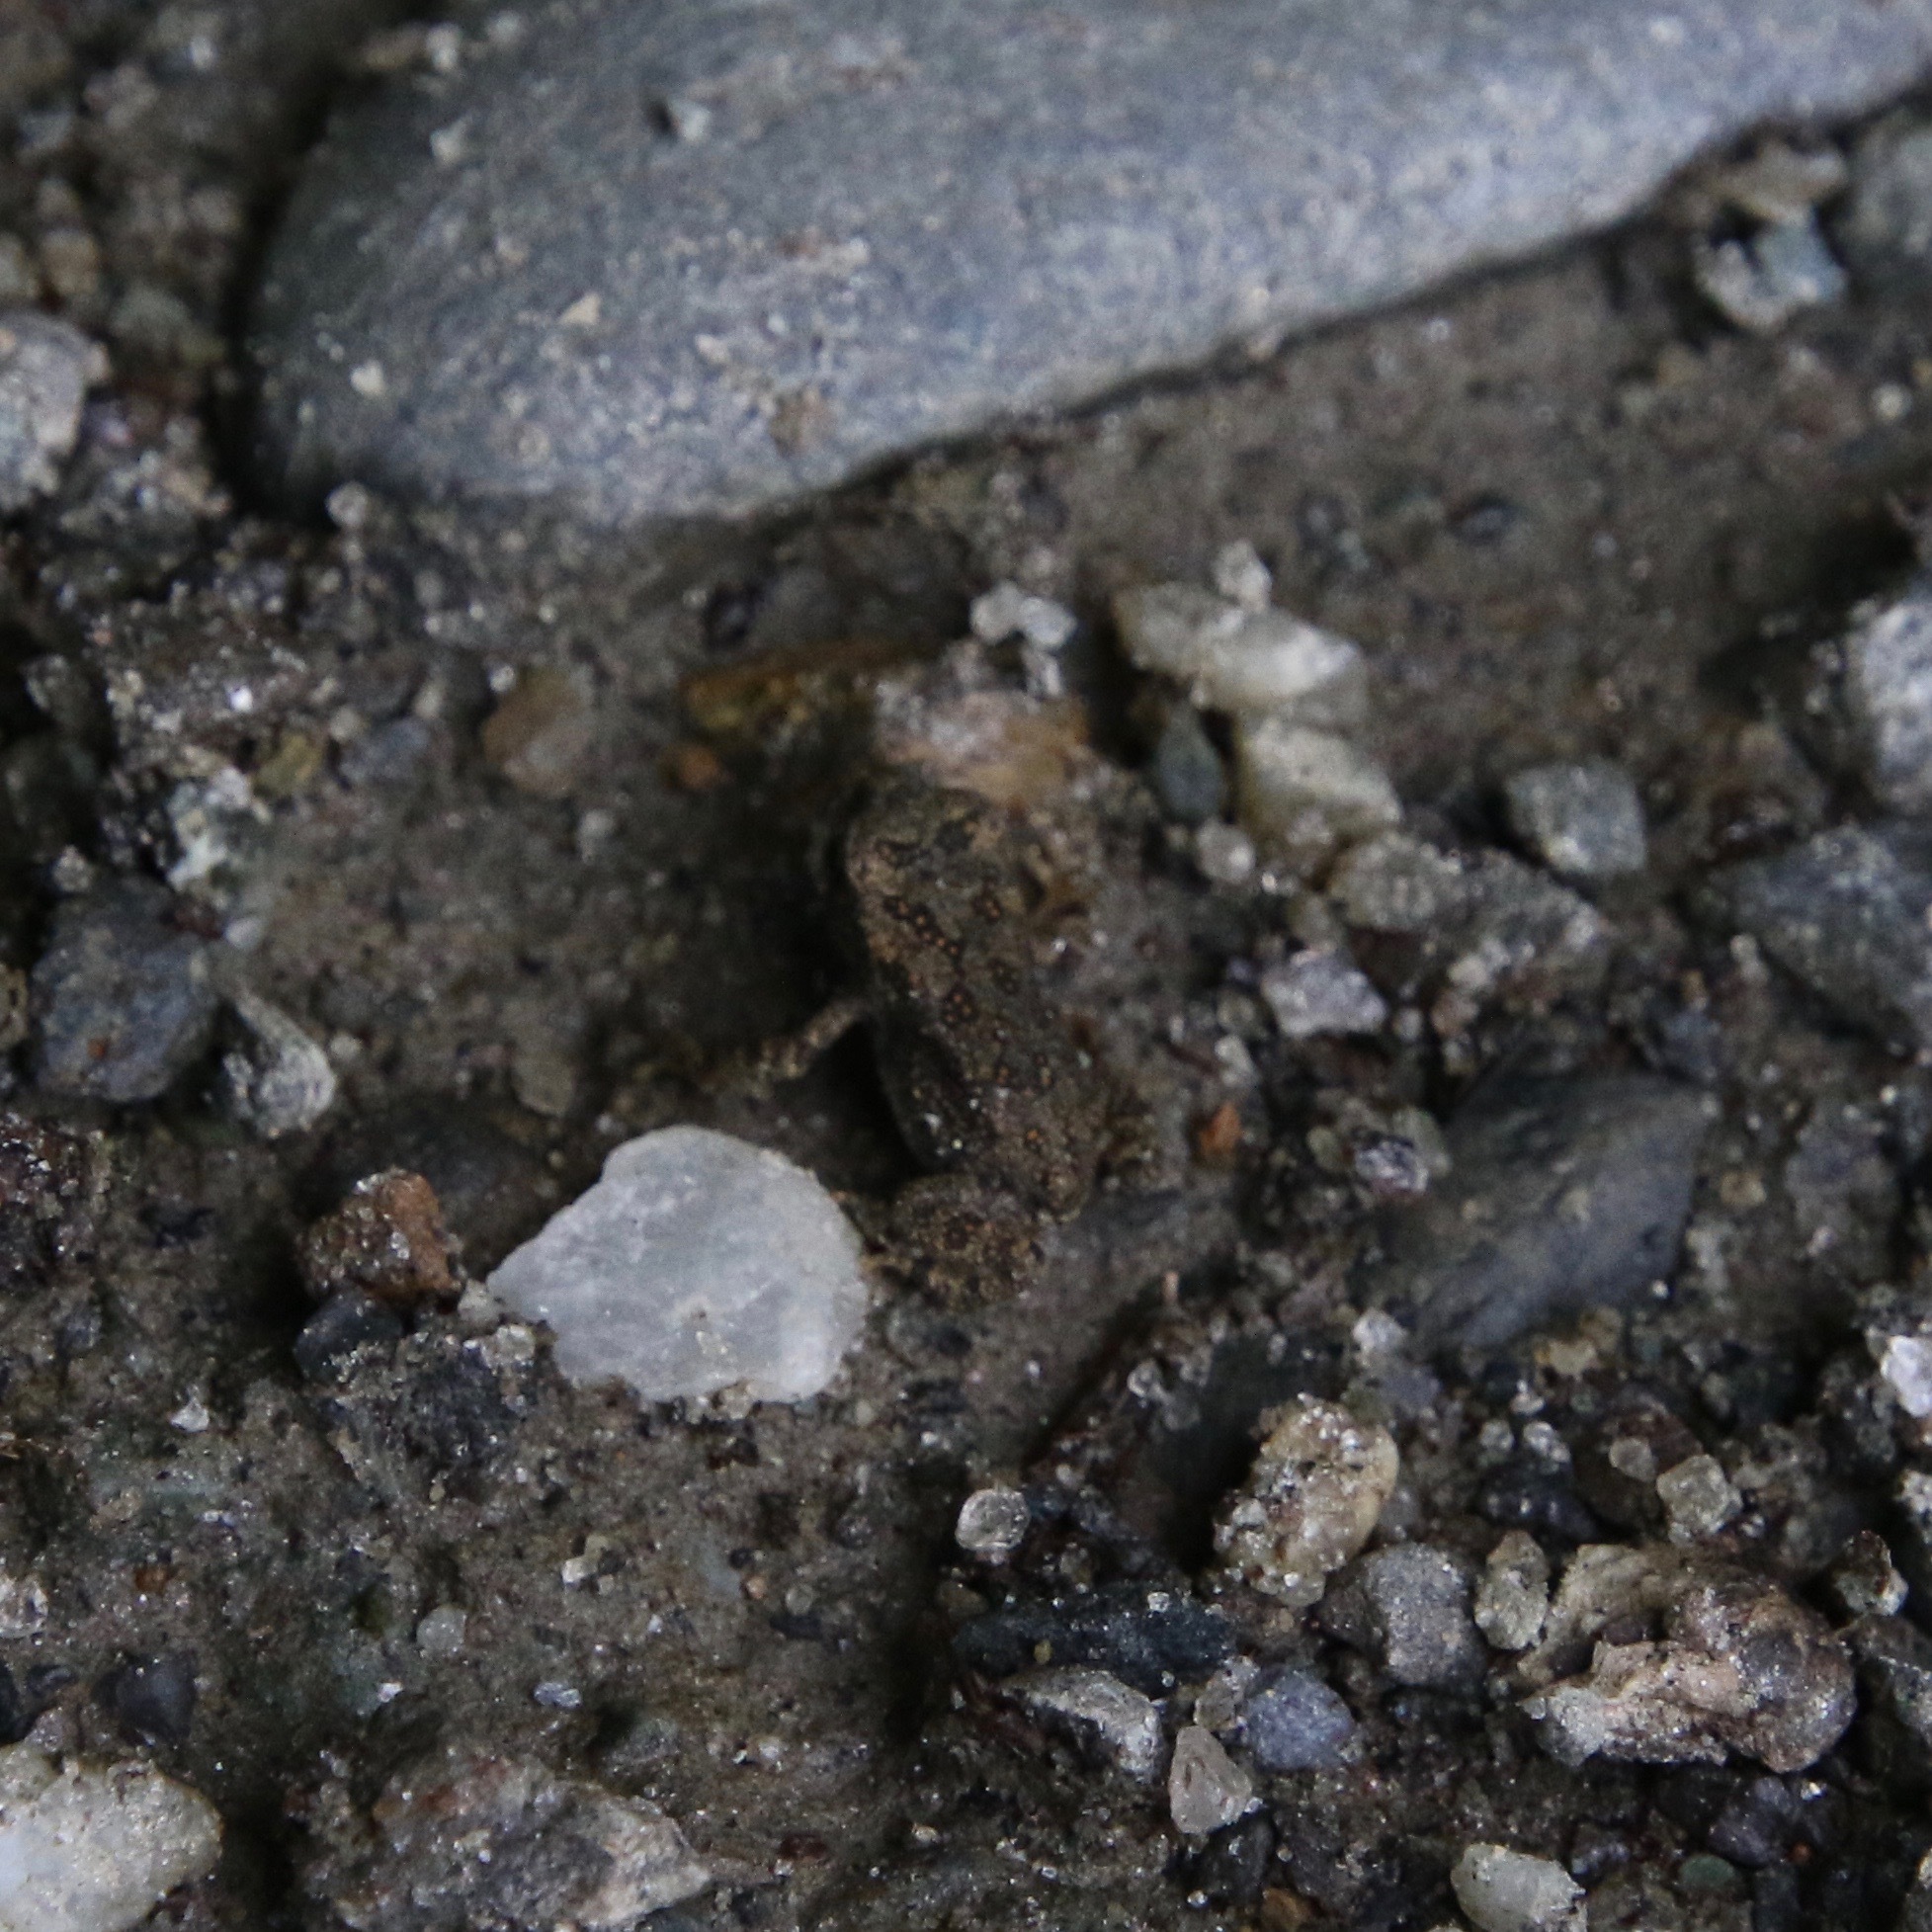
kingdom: Animalia
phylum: Chordata
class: Amphibia
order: Anura
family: Bufonidae
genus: Anaxyrus
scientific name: Anaxyrus americanus
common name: American toad
